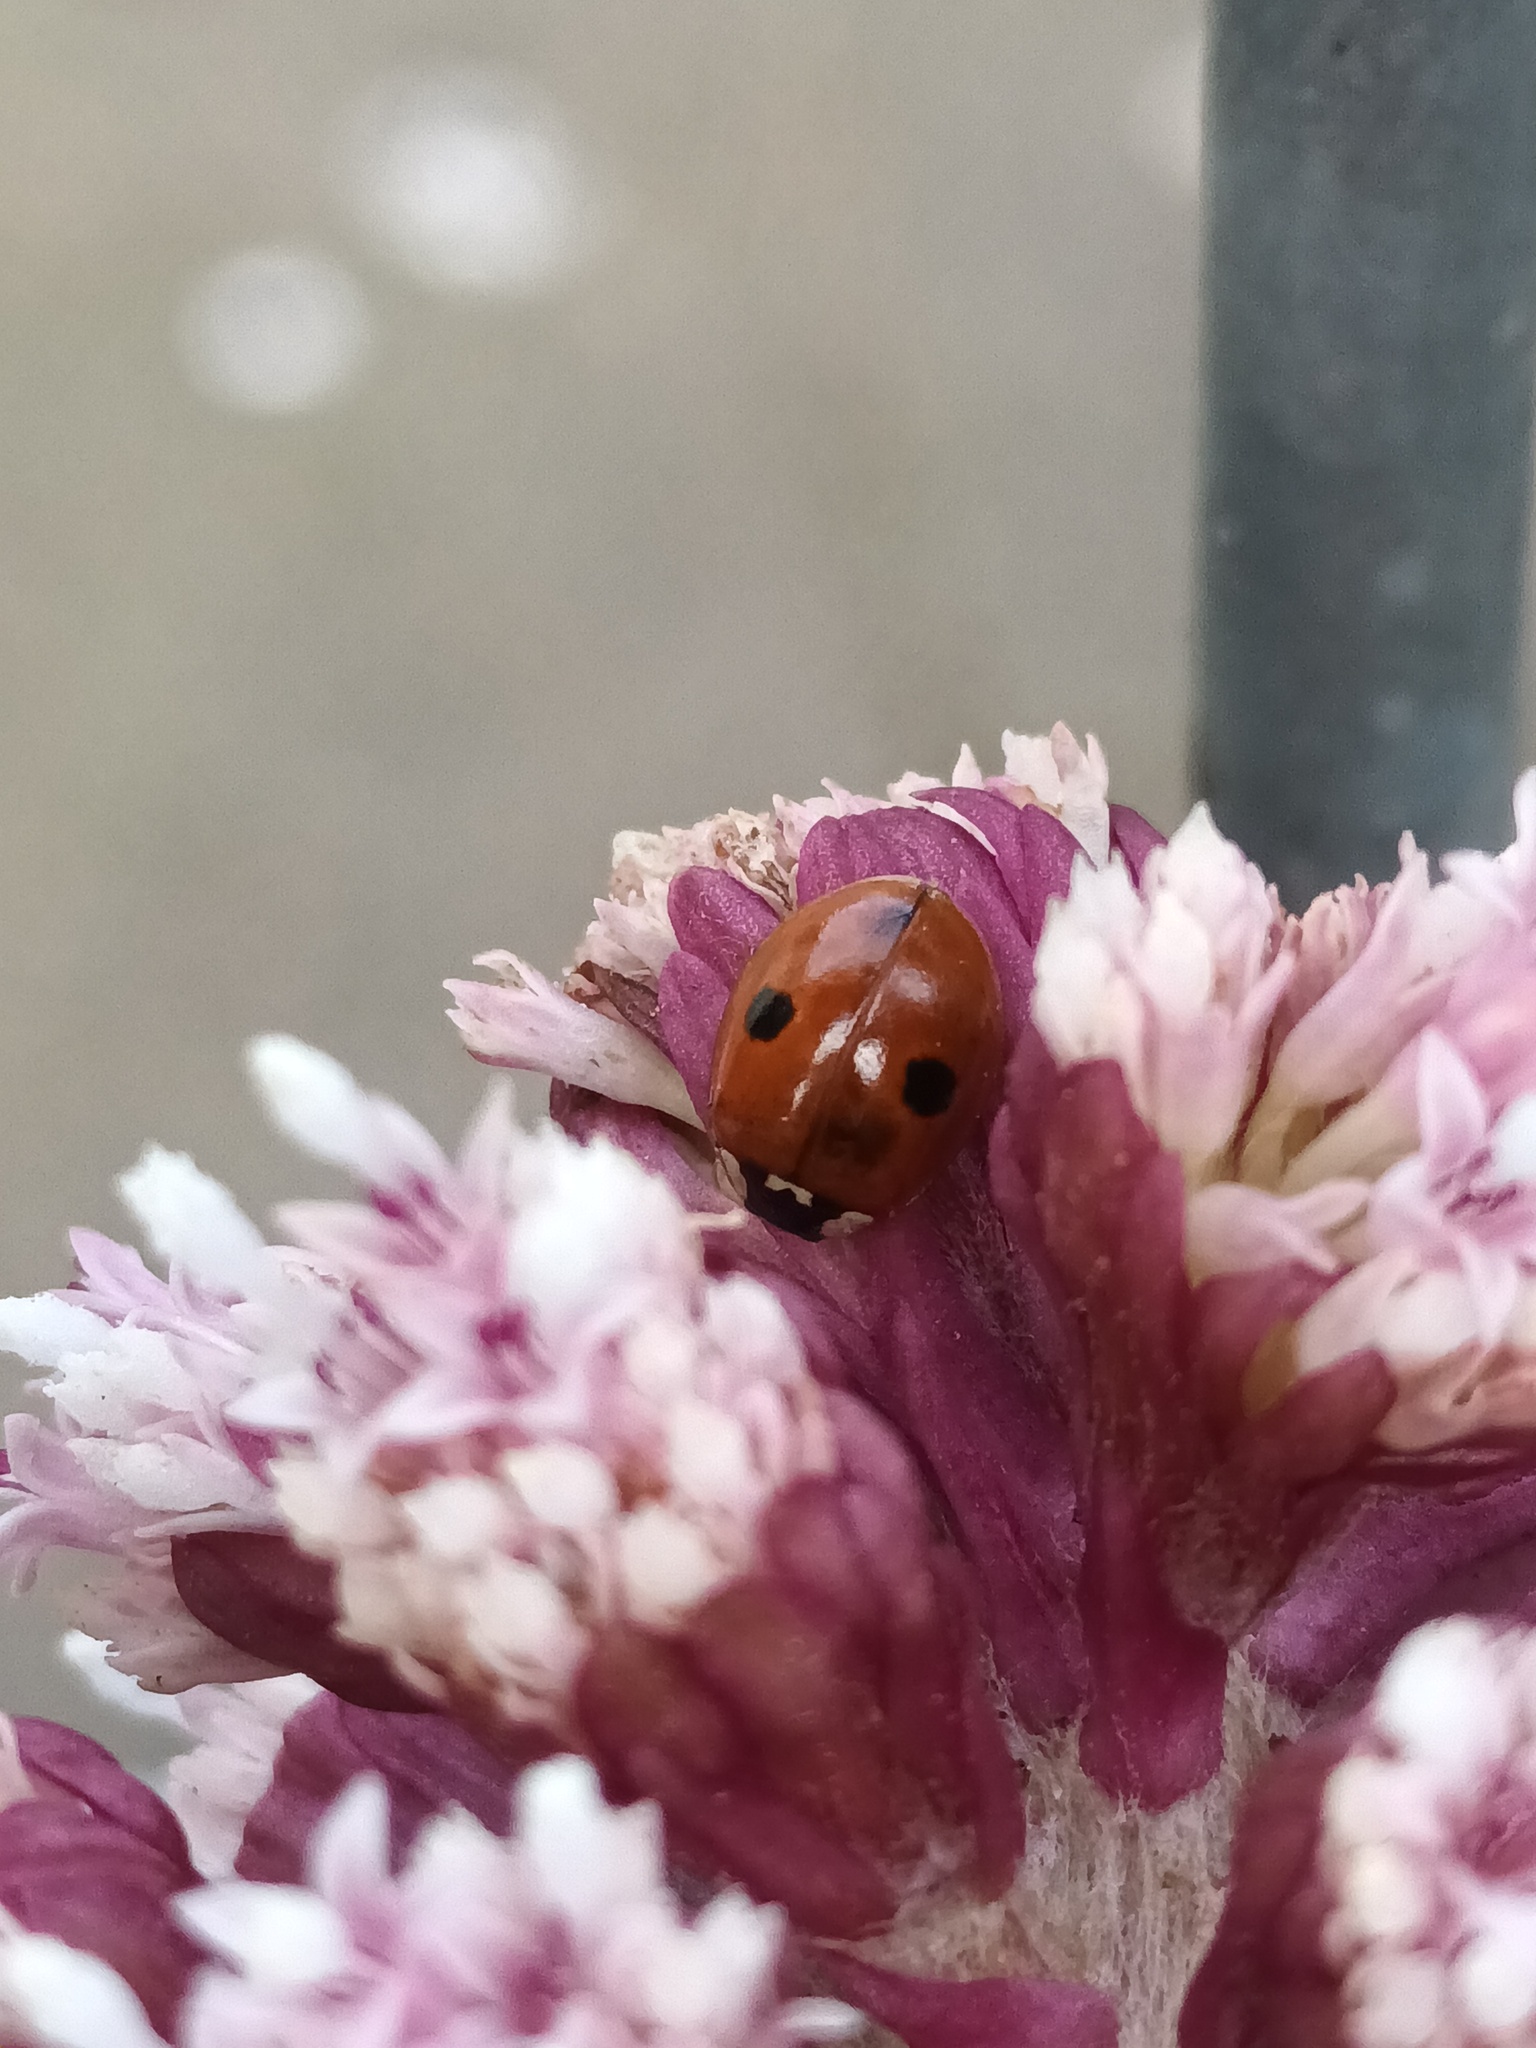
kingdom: Animalia
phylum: Arthropoda
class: Insecta
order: Coleoptera
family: Coccinellidae
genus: Adalia
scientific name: Adalia bipunctata
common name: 2-spot ladybird
